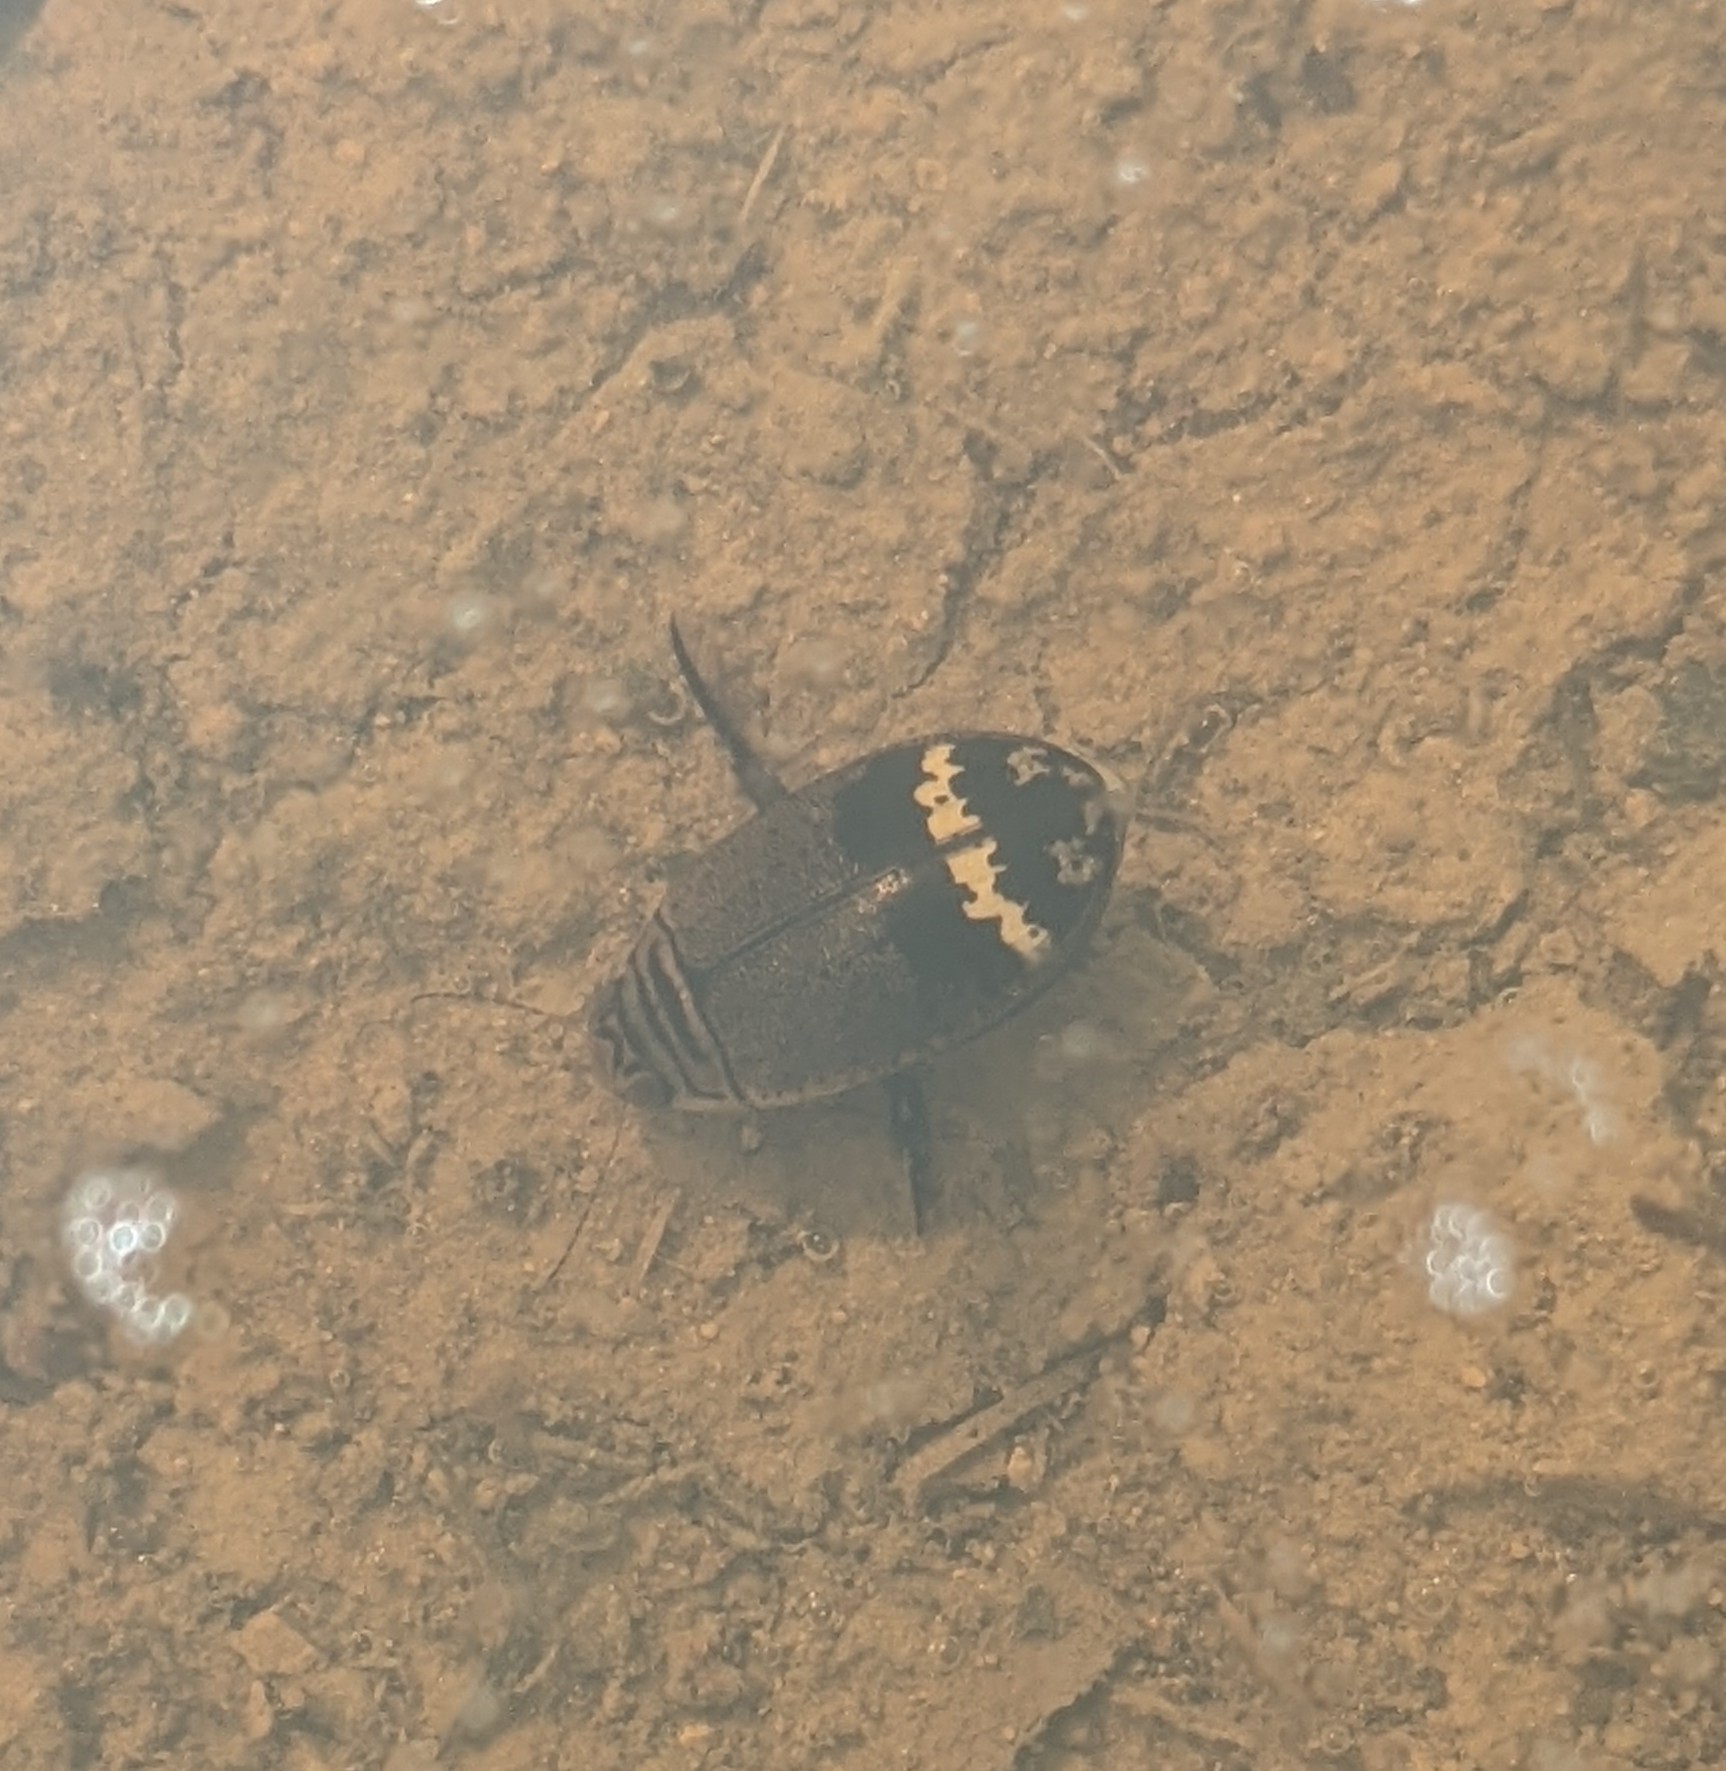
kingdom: Animalia
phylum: Arthropoda
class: Insecta
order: Coleoptera
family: Dytiscidae
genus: Acilius
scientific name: Acilius mediatus
